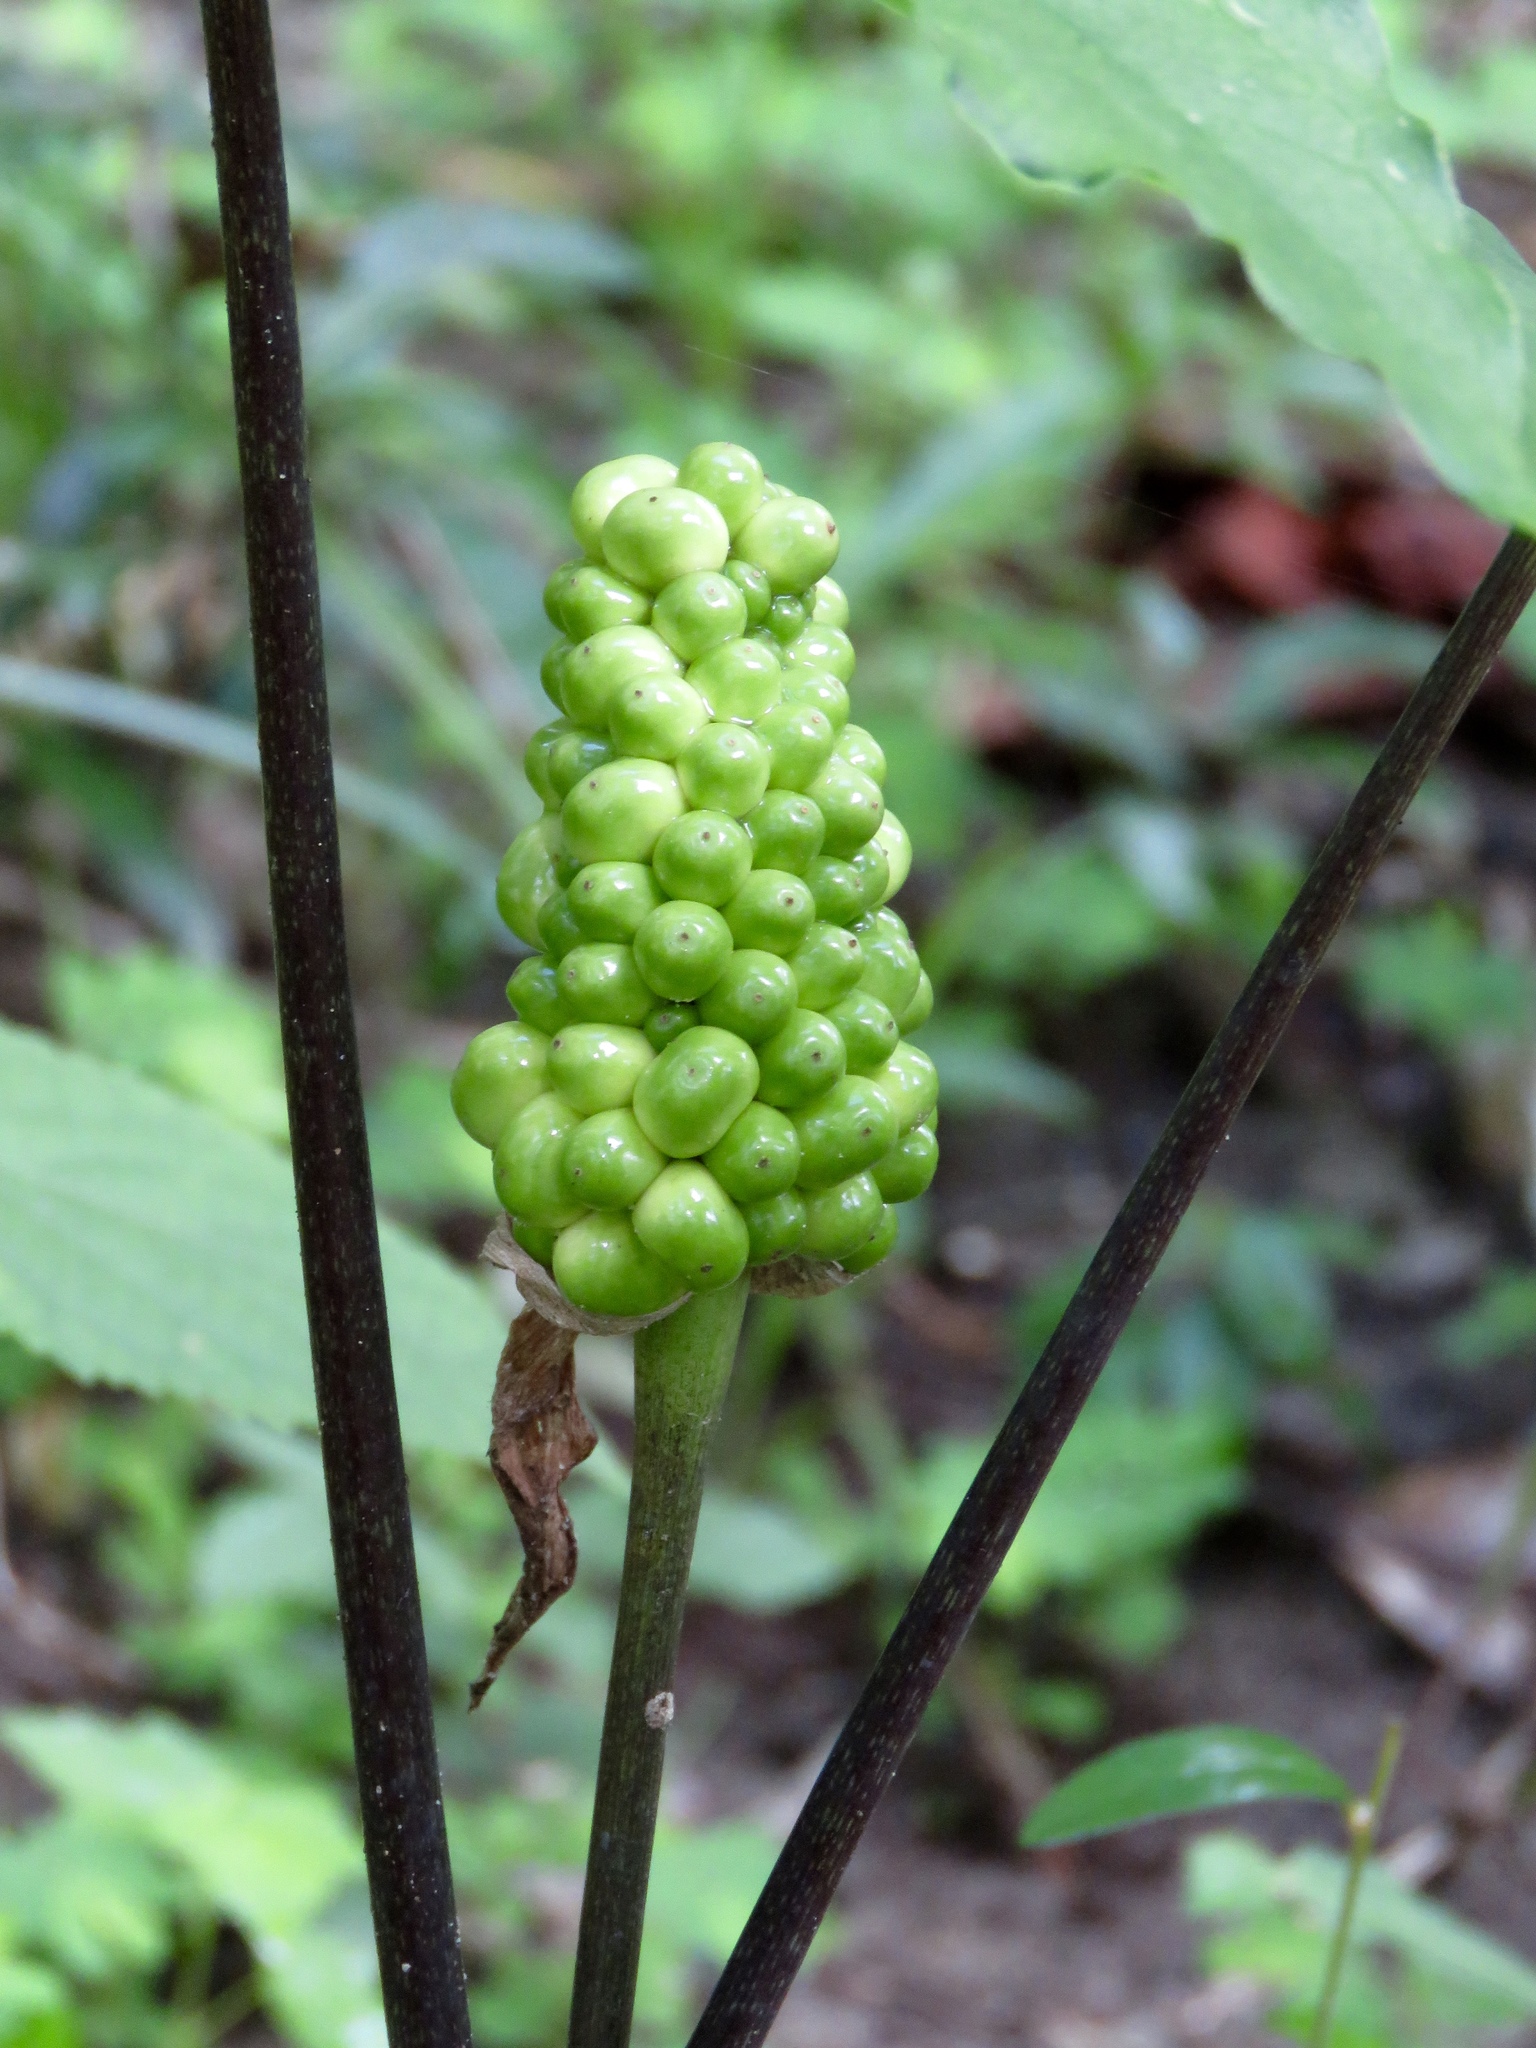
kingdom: Plantae
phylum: Tracheophyta
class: Liliopsida
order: Alismatales
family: Araceae
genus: Arisaema
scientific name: Arisaema quinatum
